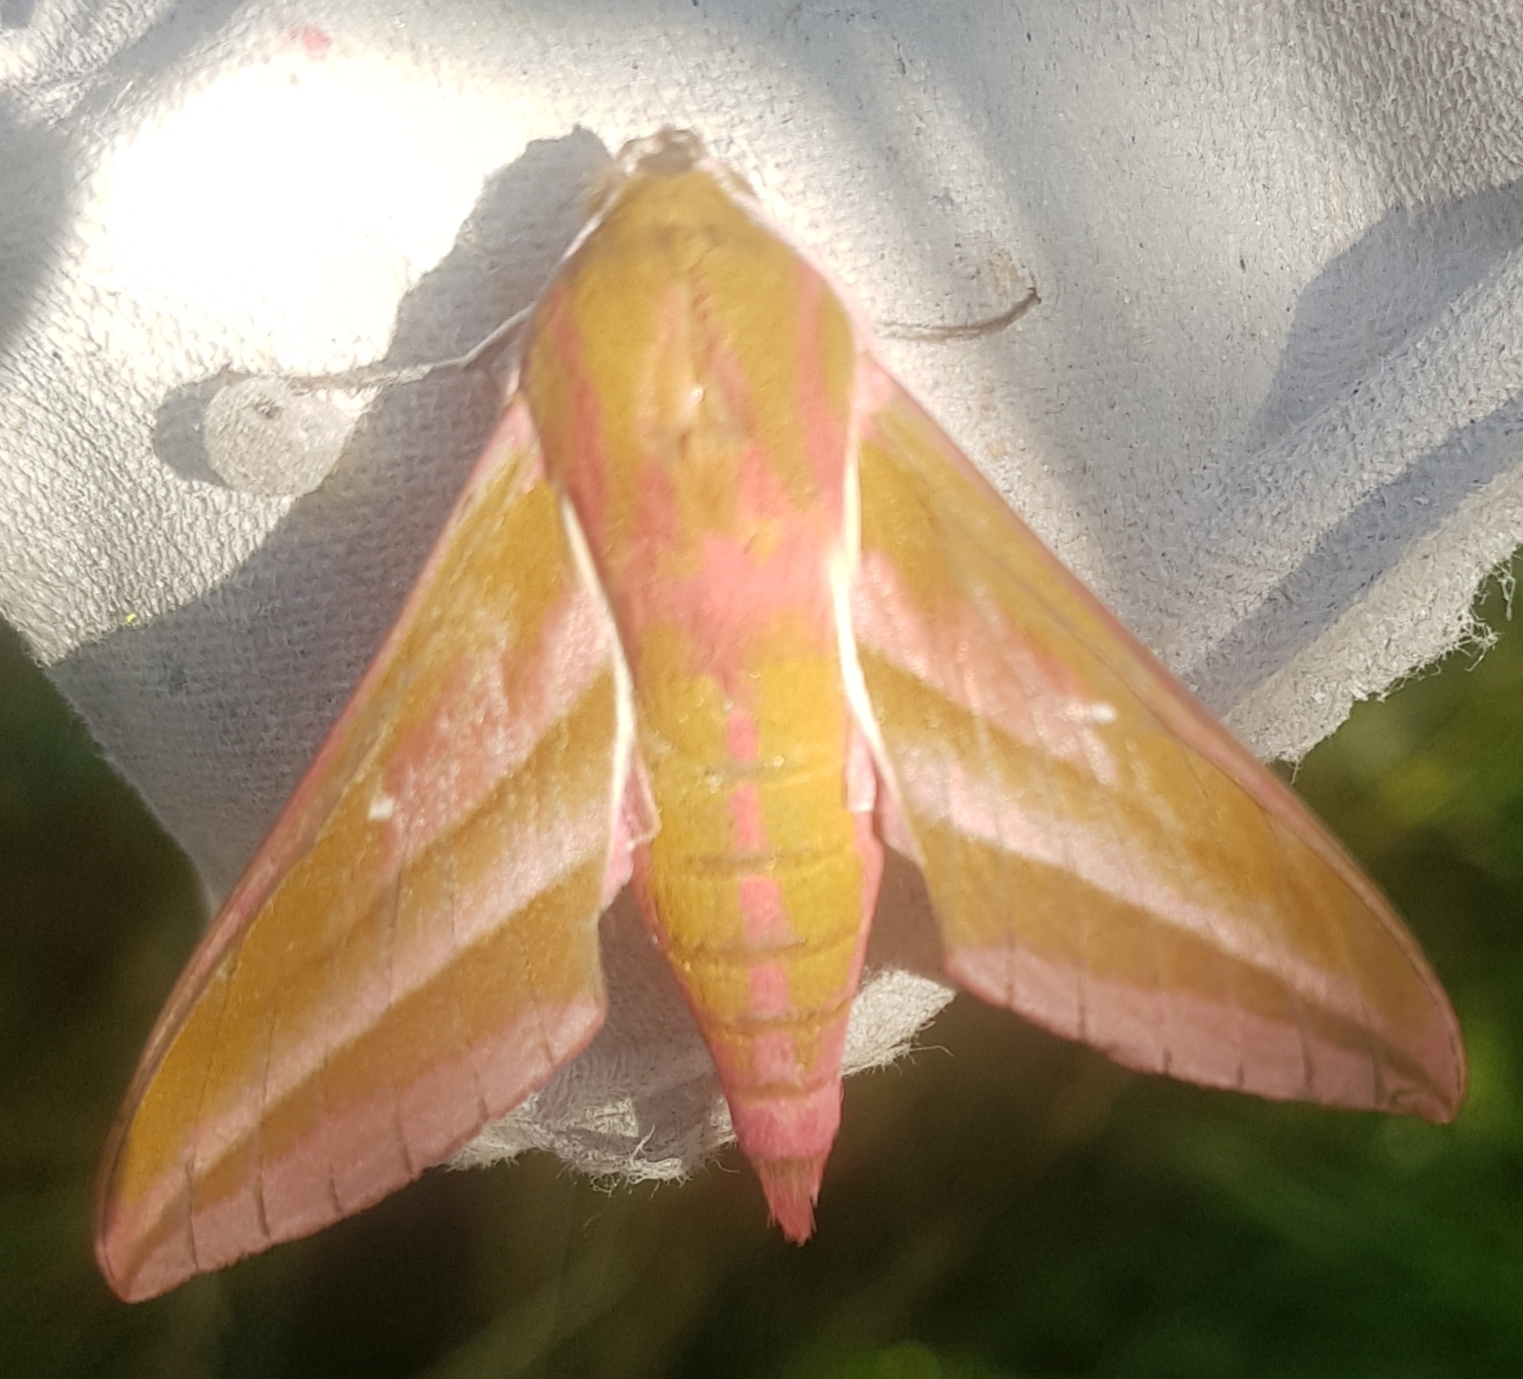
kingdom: Animalia
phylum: Arthropoda
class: Insecta
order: Lepidoptera
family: Sphingidae
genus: Deilephila
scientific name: Deilephila elpenor
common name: Elephant hawk-moth
